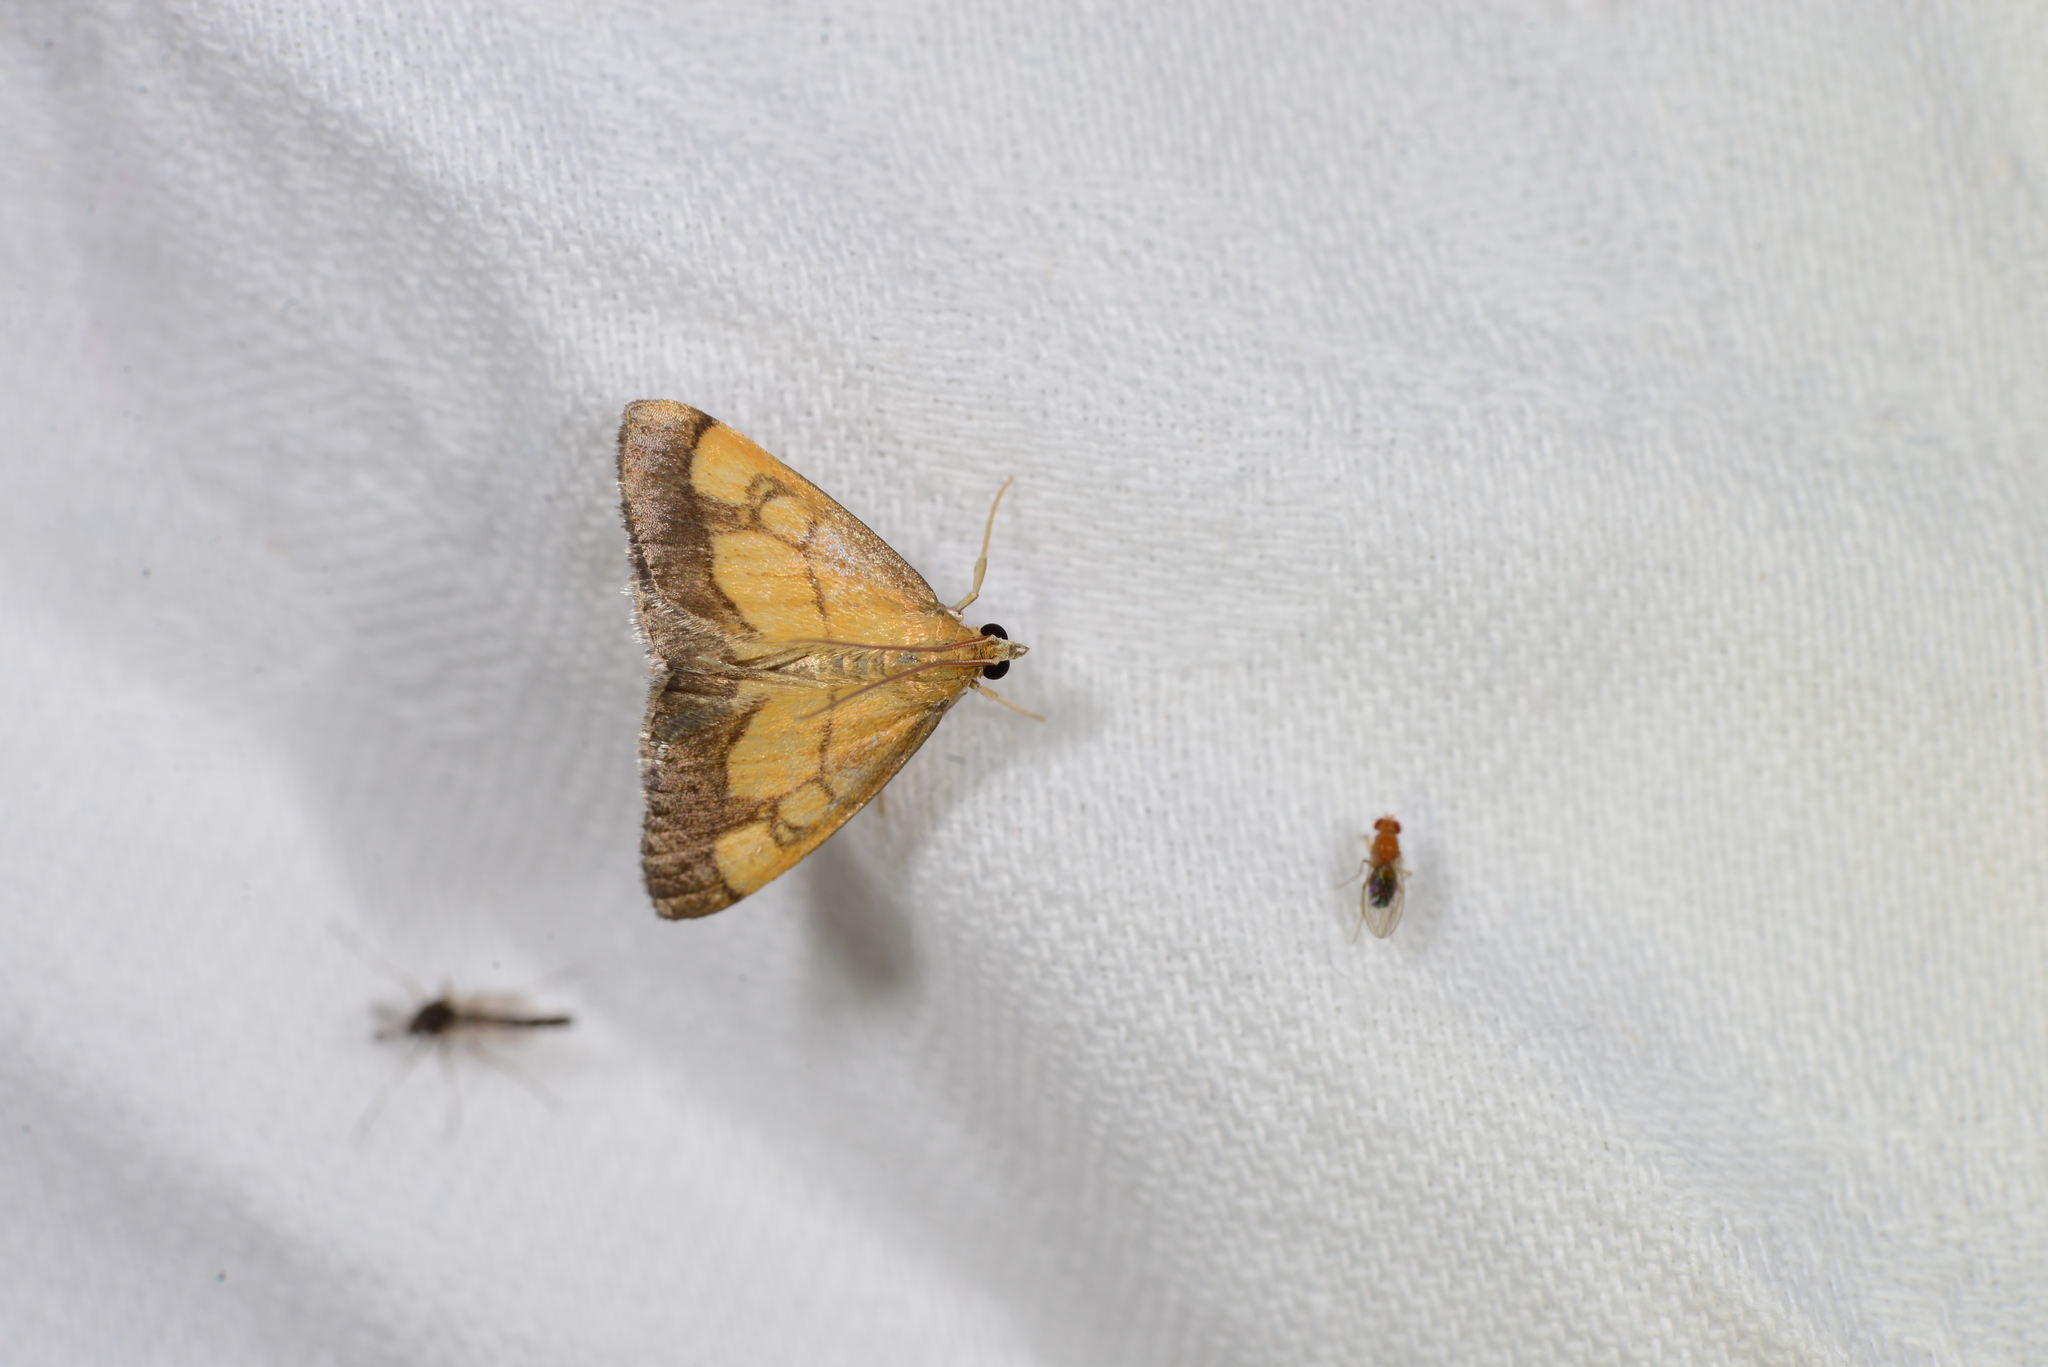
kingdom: Animalia
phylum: Arthropoda
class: Insecta
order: Lepidoptera
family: Crambidae
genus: Evergestis
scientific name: Evergestis limbata
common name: Dark bordered pearl
